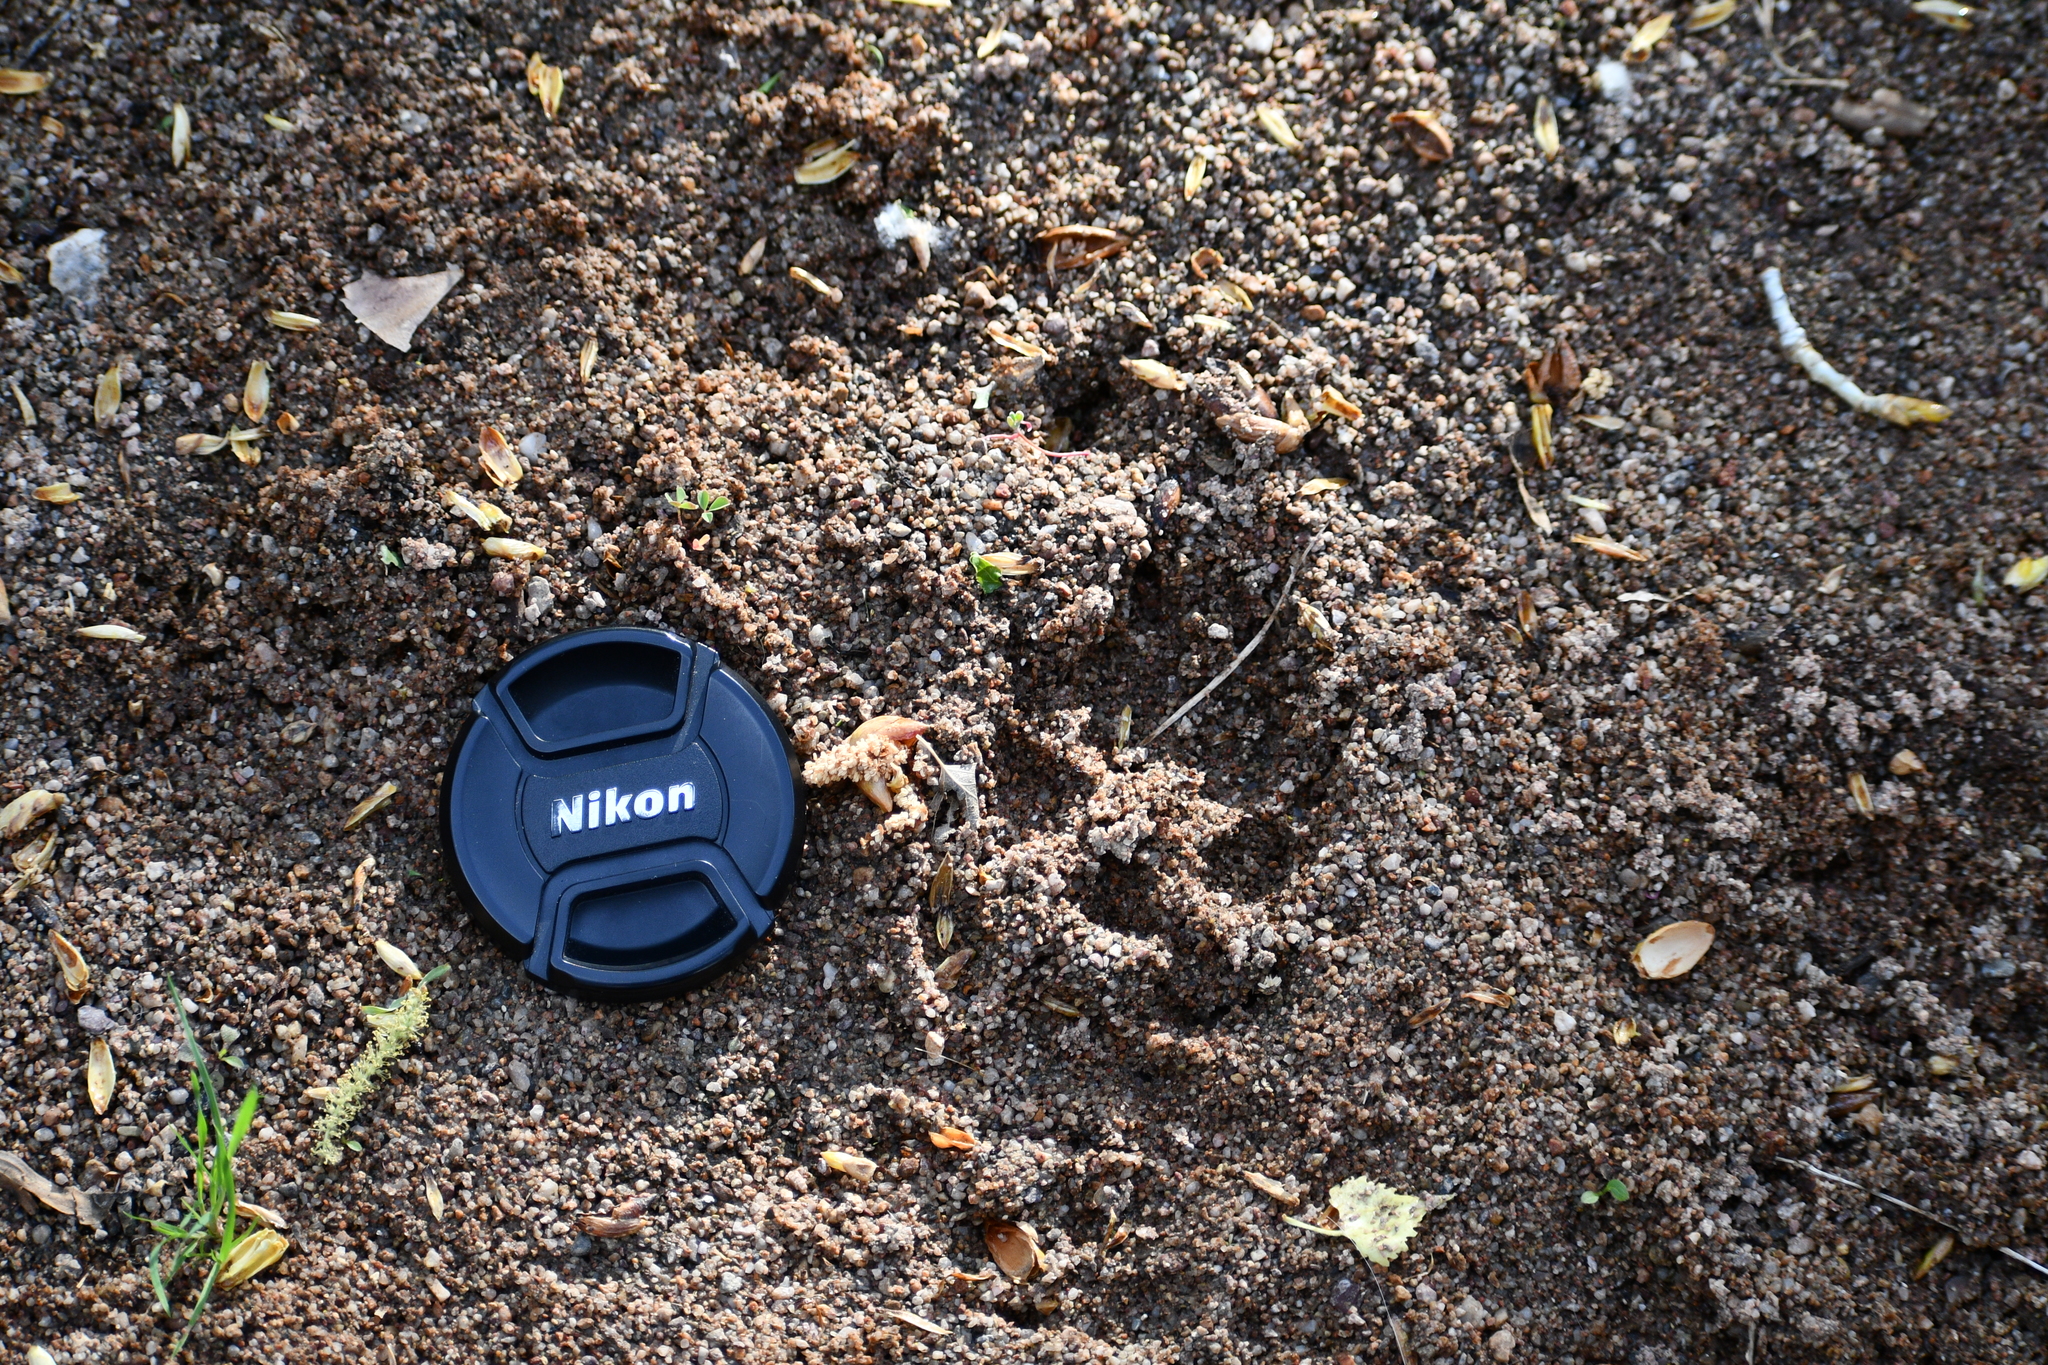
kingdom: Animalia
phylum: Chordata
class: Mammalia
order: Carnivora
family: Canidae
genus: Urocyon
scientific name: Urocyon cinereoargenteus
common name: Gray fox
